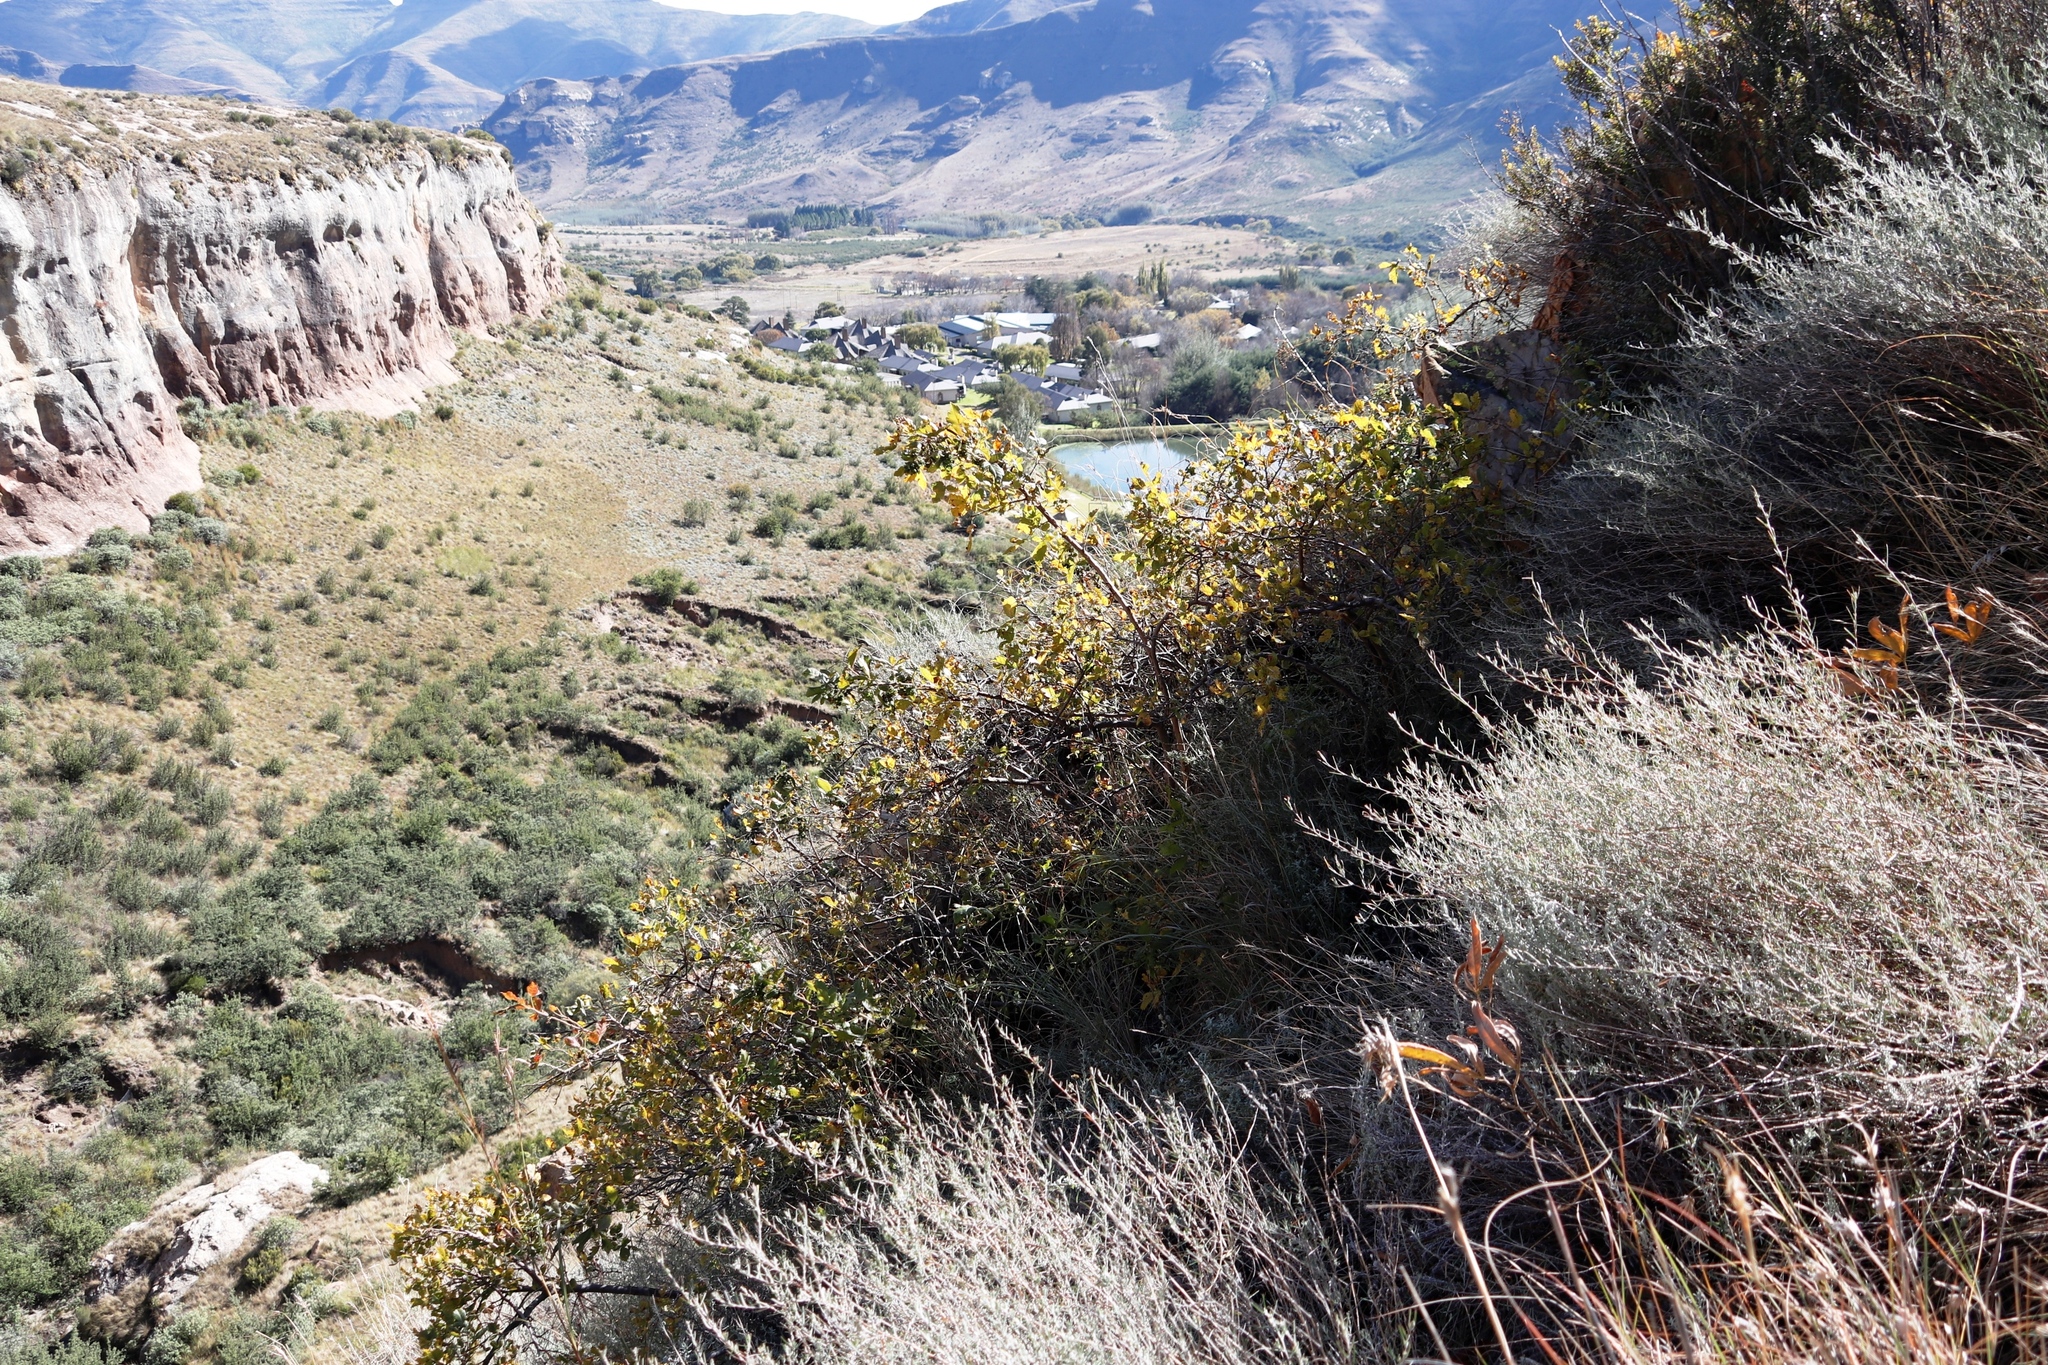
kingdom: Plantae
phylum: Tracheophyta
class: Magnoliopsida
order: Sapindales
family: Anacardiaceae
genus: Searsia
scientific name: Searsia dentata
